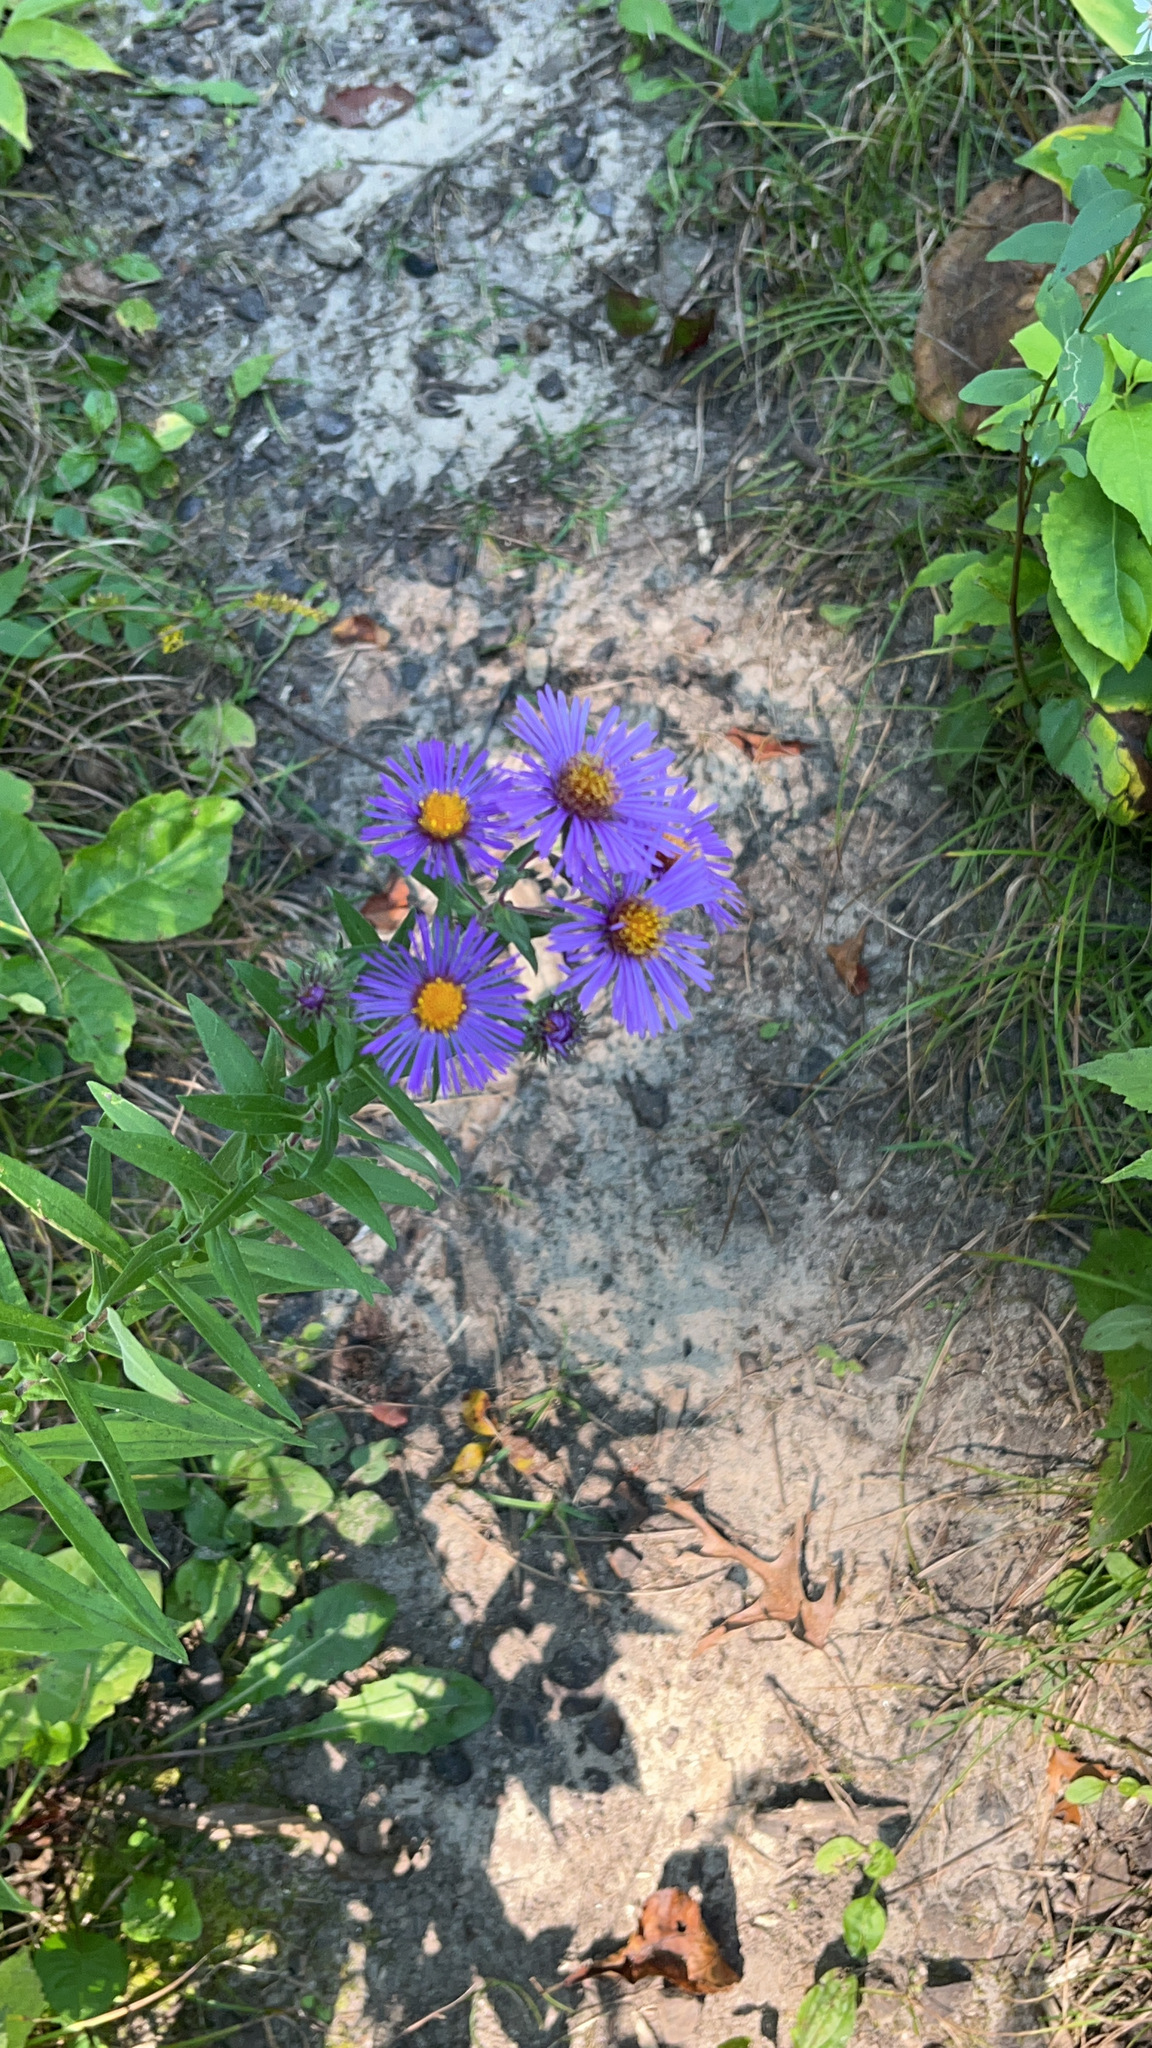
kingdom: Plantae
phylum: Tracheophyta
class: Magnoliopsida
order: Asterales
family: Asteraceae
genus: Symphyotrichum
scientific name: Symphyotrichum novae-angliae
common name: Michaelmas daisy
